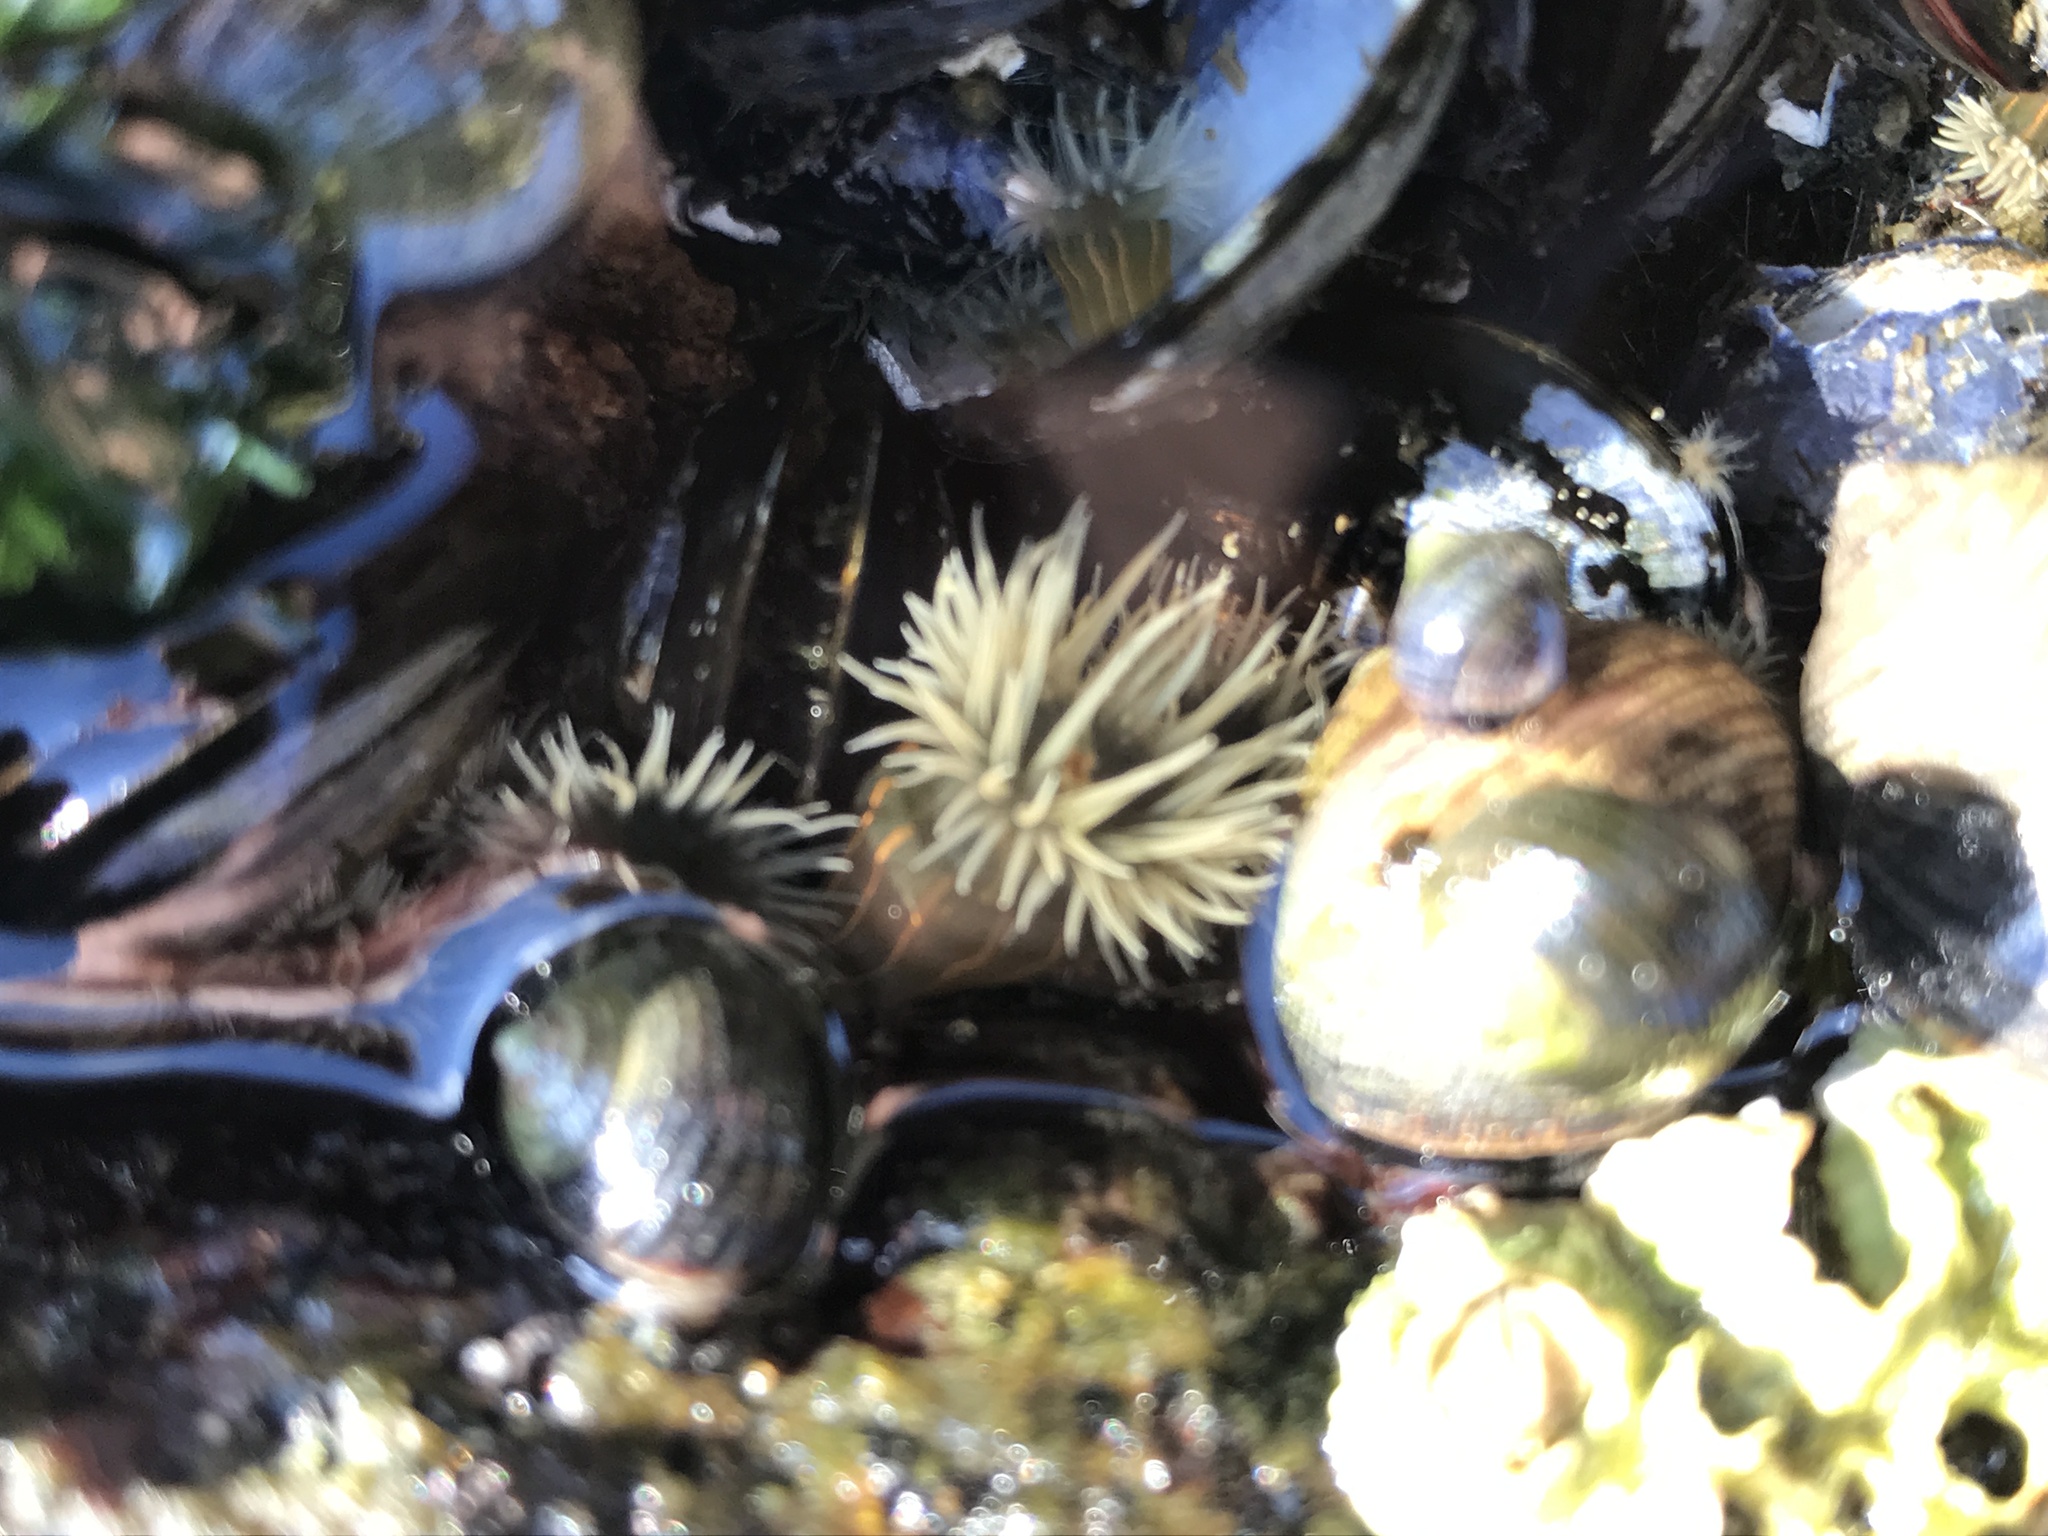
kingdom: Animalia
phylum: Cnidaria
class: Anthozoa
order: Actiniaria
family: Diadumenidae
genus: Diadumene
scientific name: Diadumene lineata
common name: Orange-striped anemone
